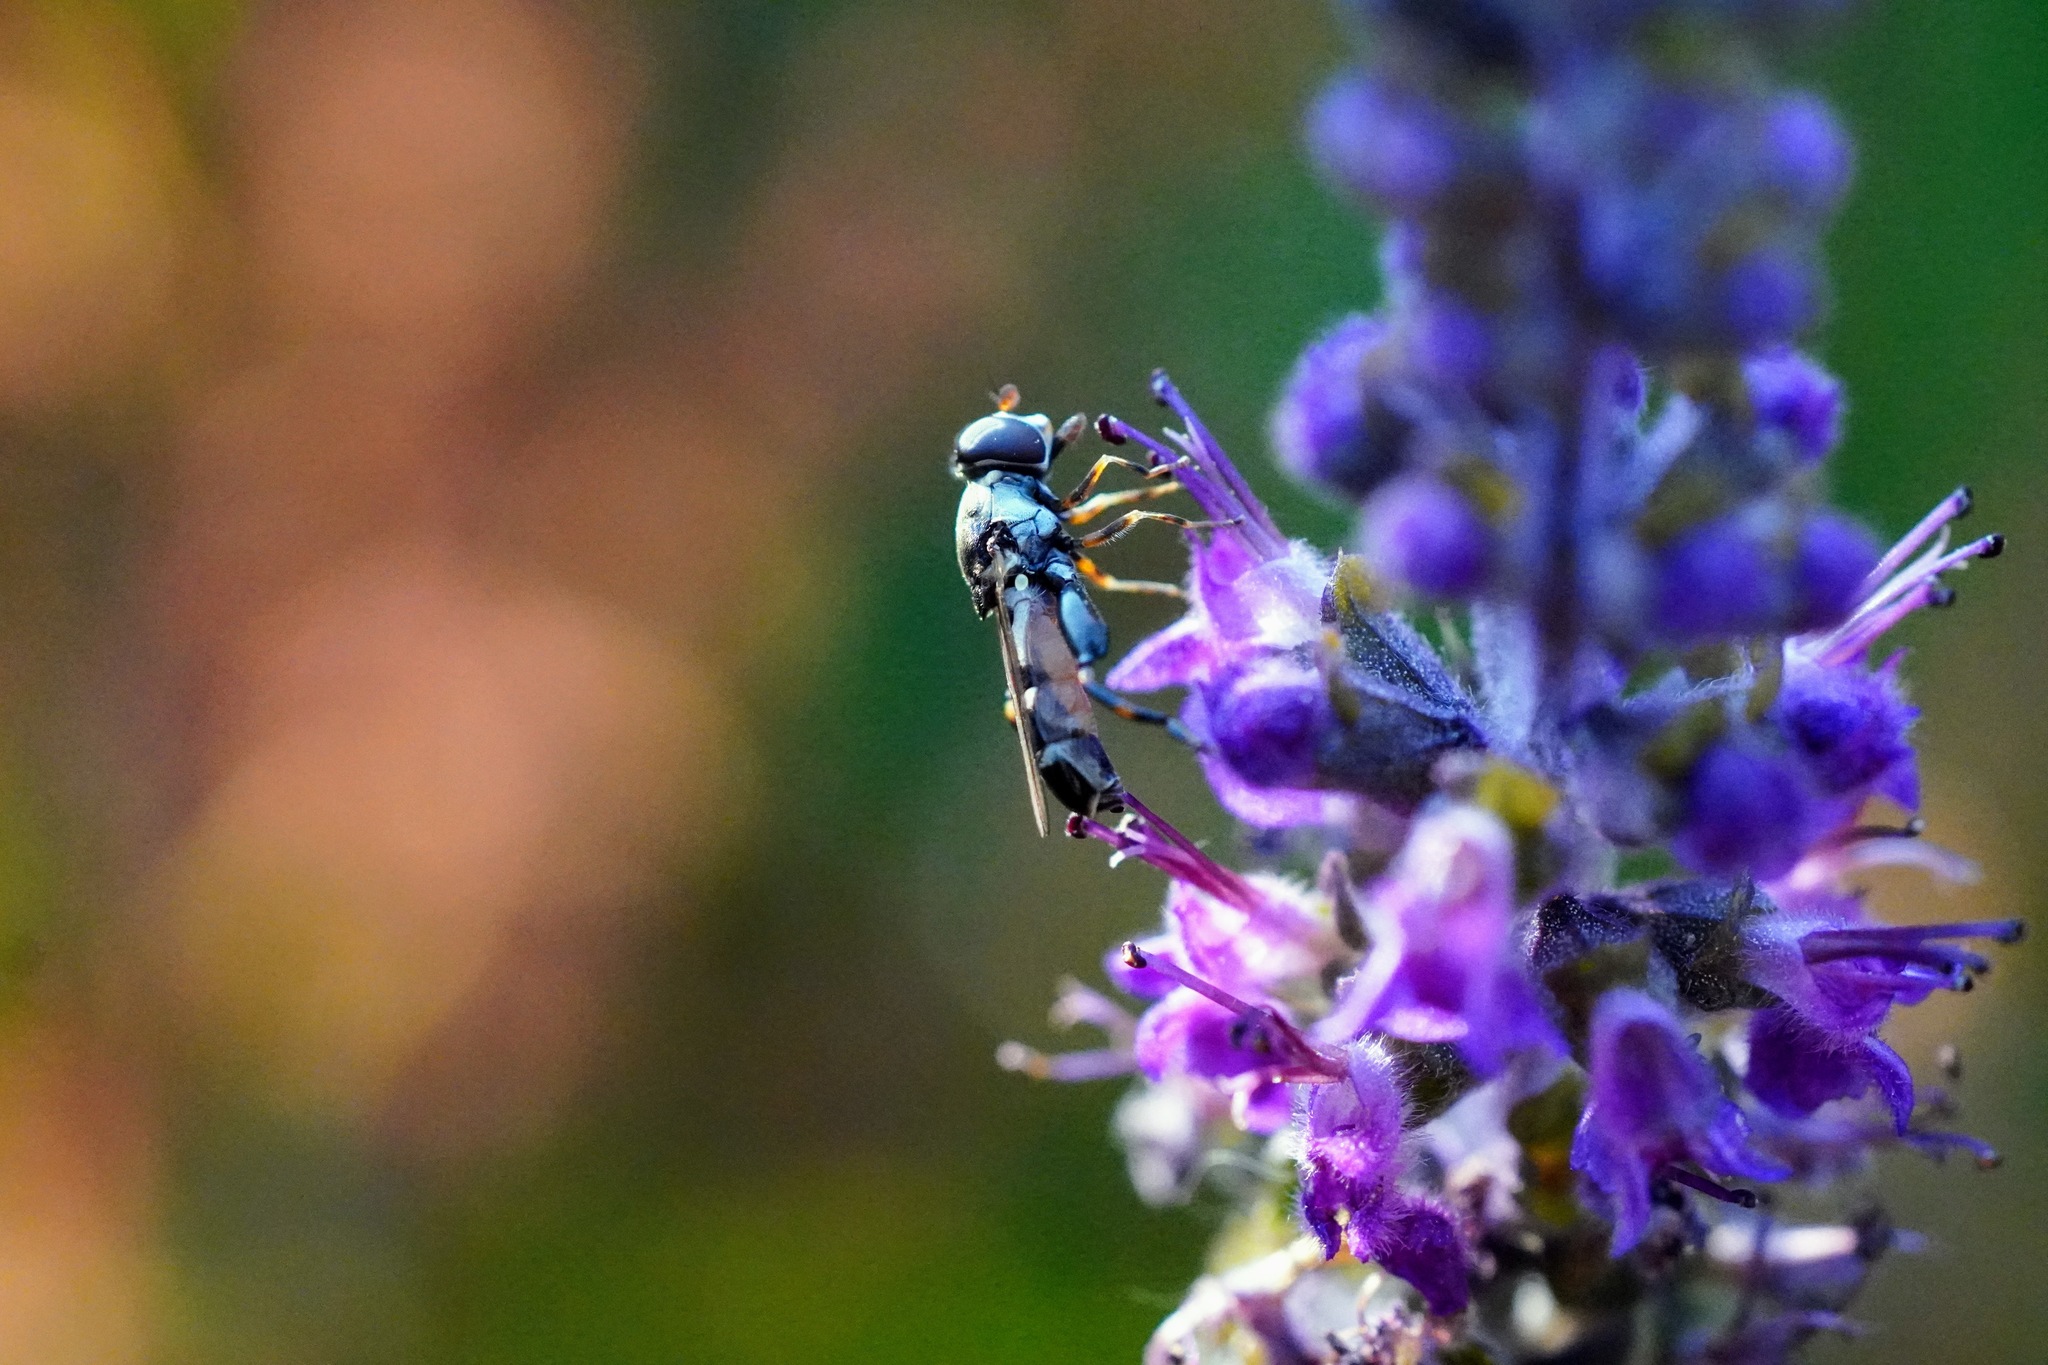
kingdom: Animalia
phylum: Arthropoda
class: Insecta
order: Diptera
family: Syrphidae
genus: Syritta
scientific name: Syritta pipiens
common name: Hover fly
